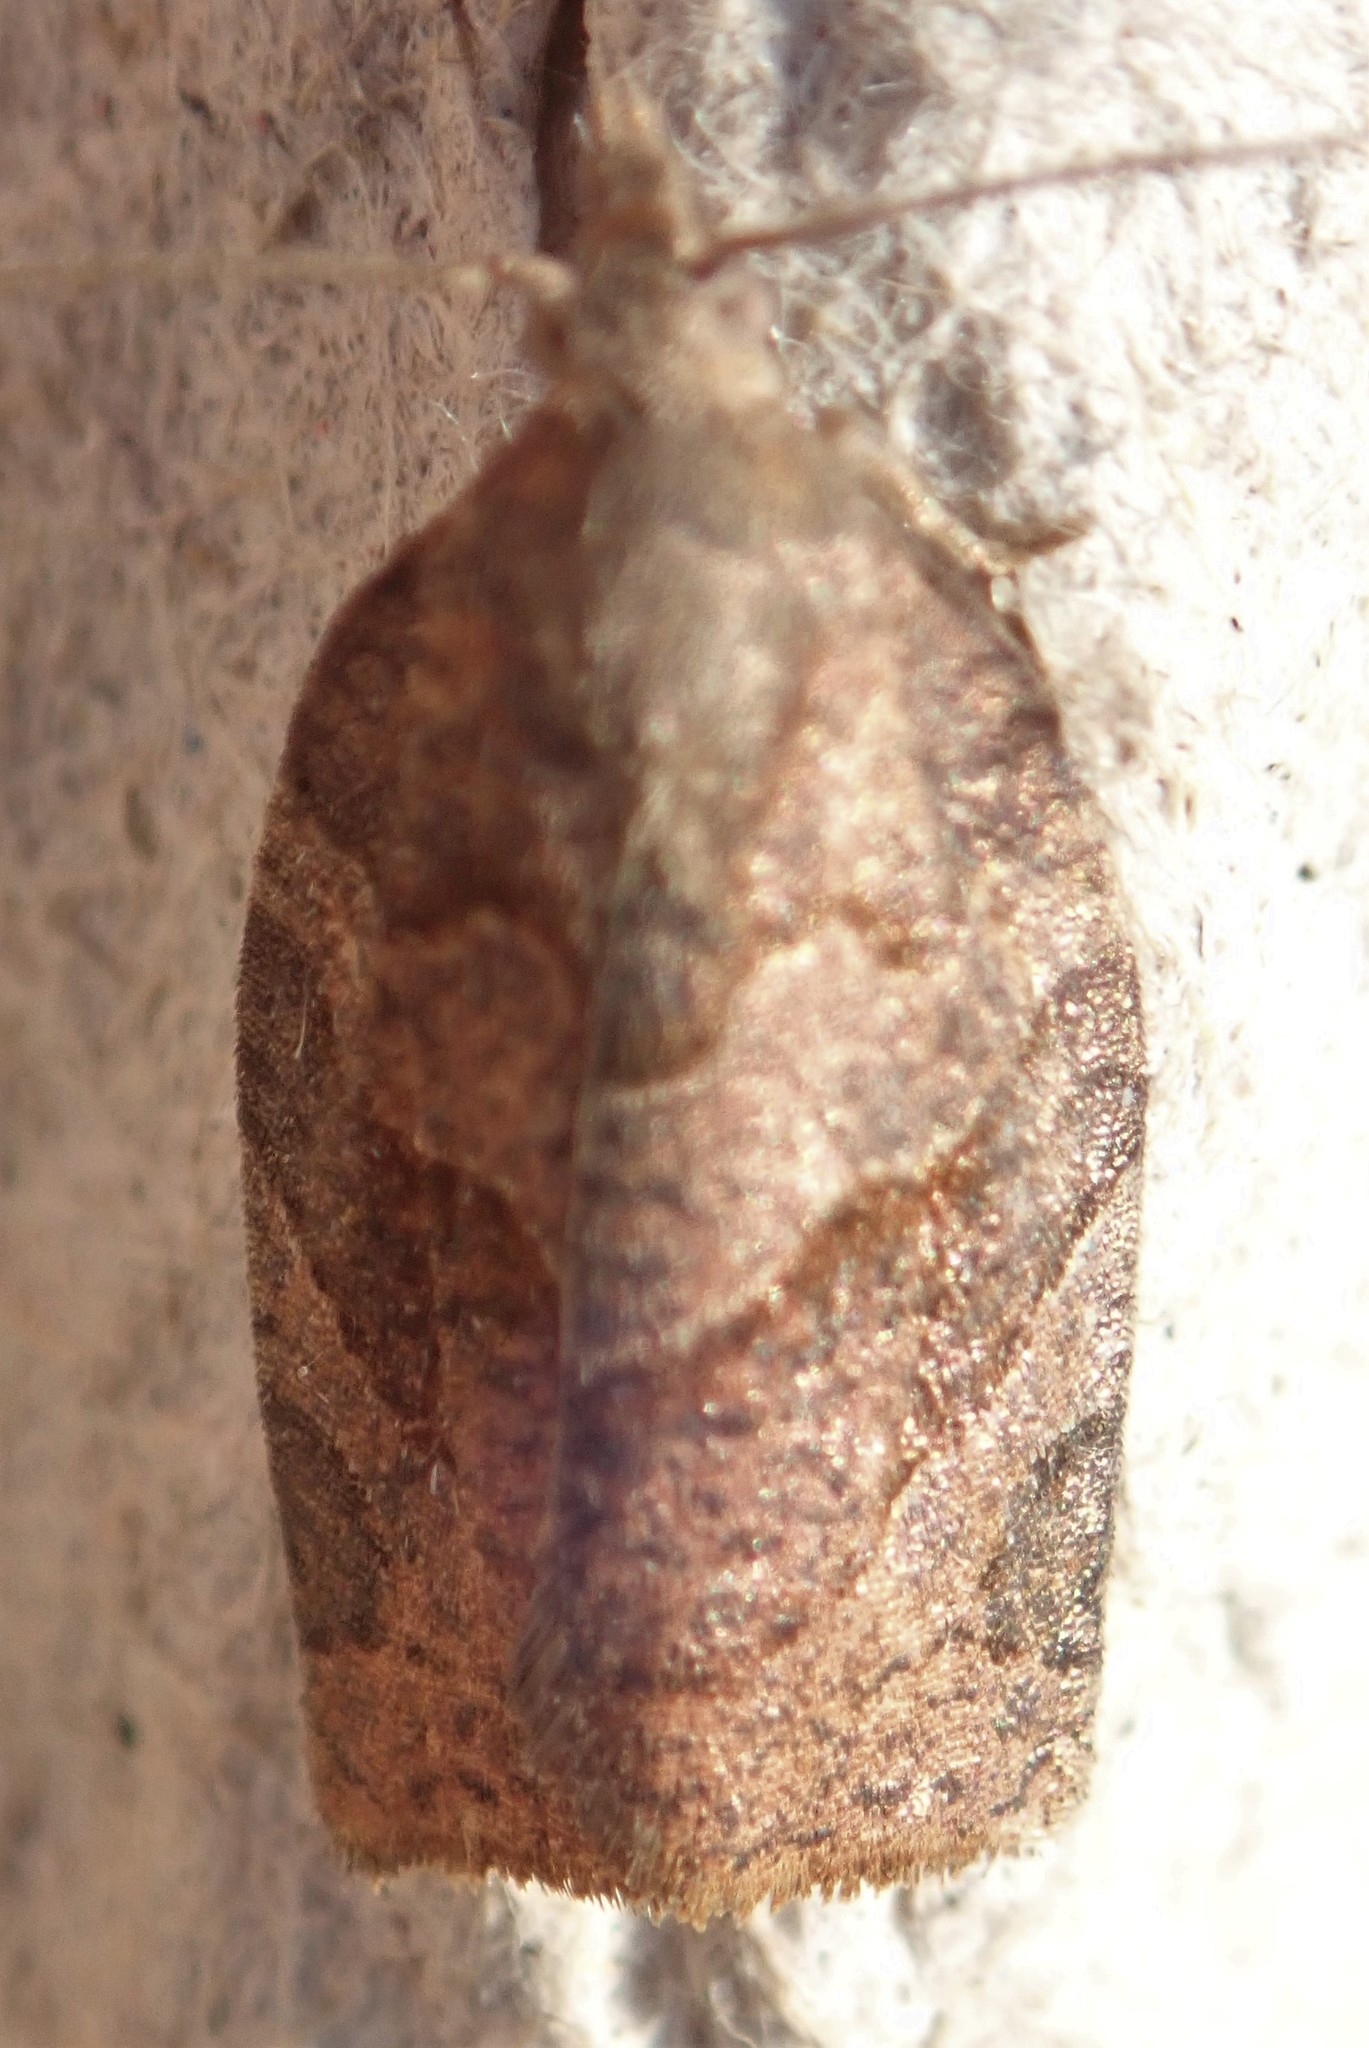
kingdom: Animalia
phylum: Arthropoda
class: Insecta
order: Lepidoptera
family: Tortricidae
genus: Pandemis
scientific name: Pandemis canadana
